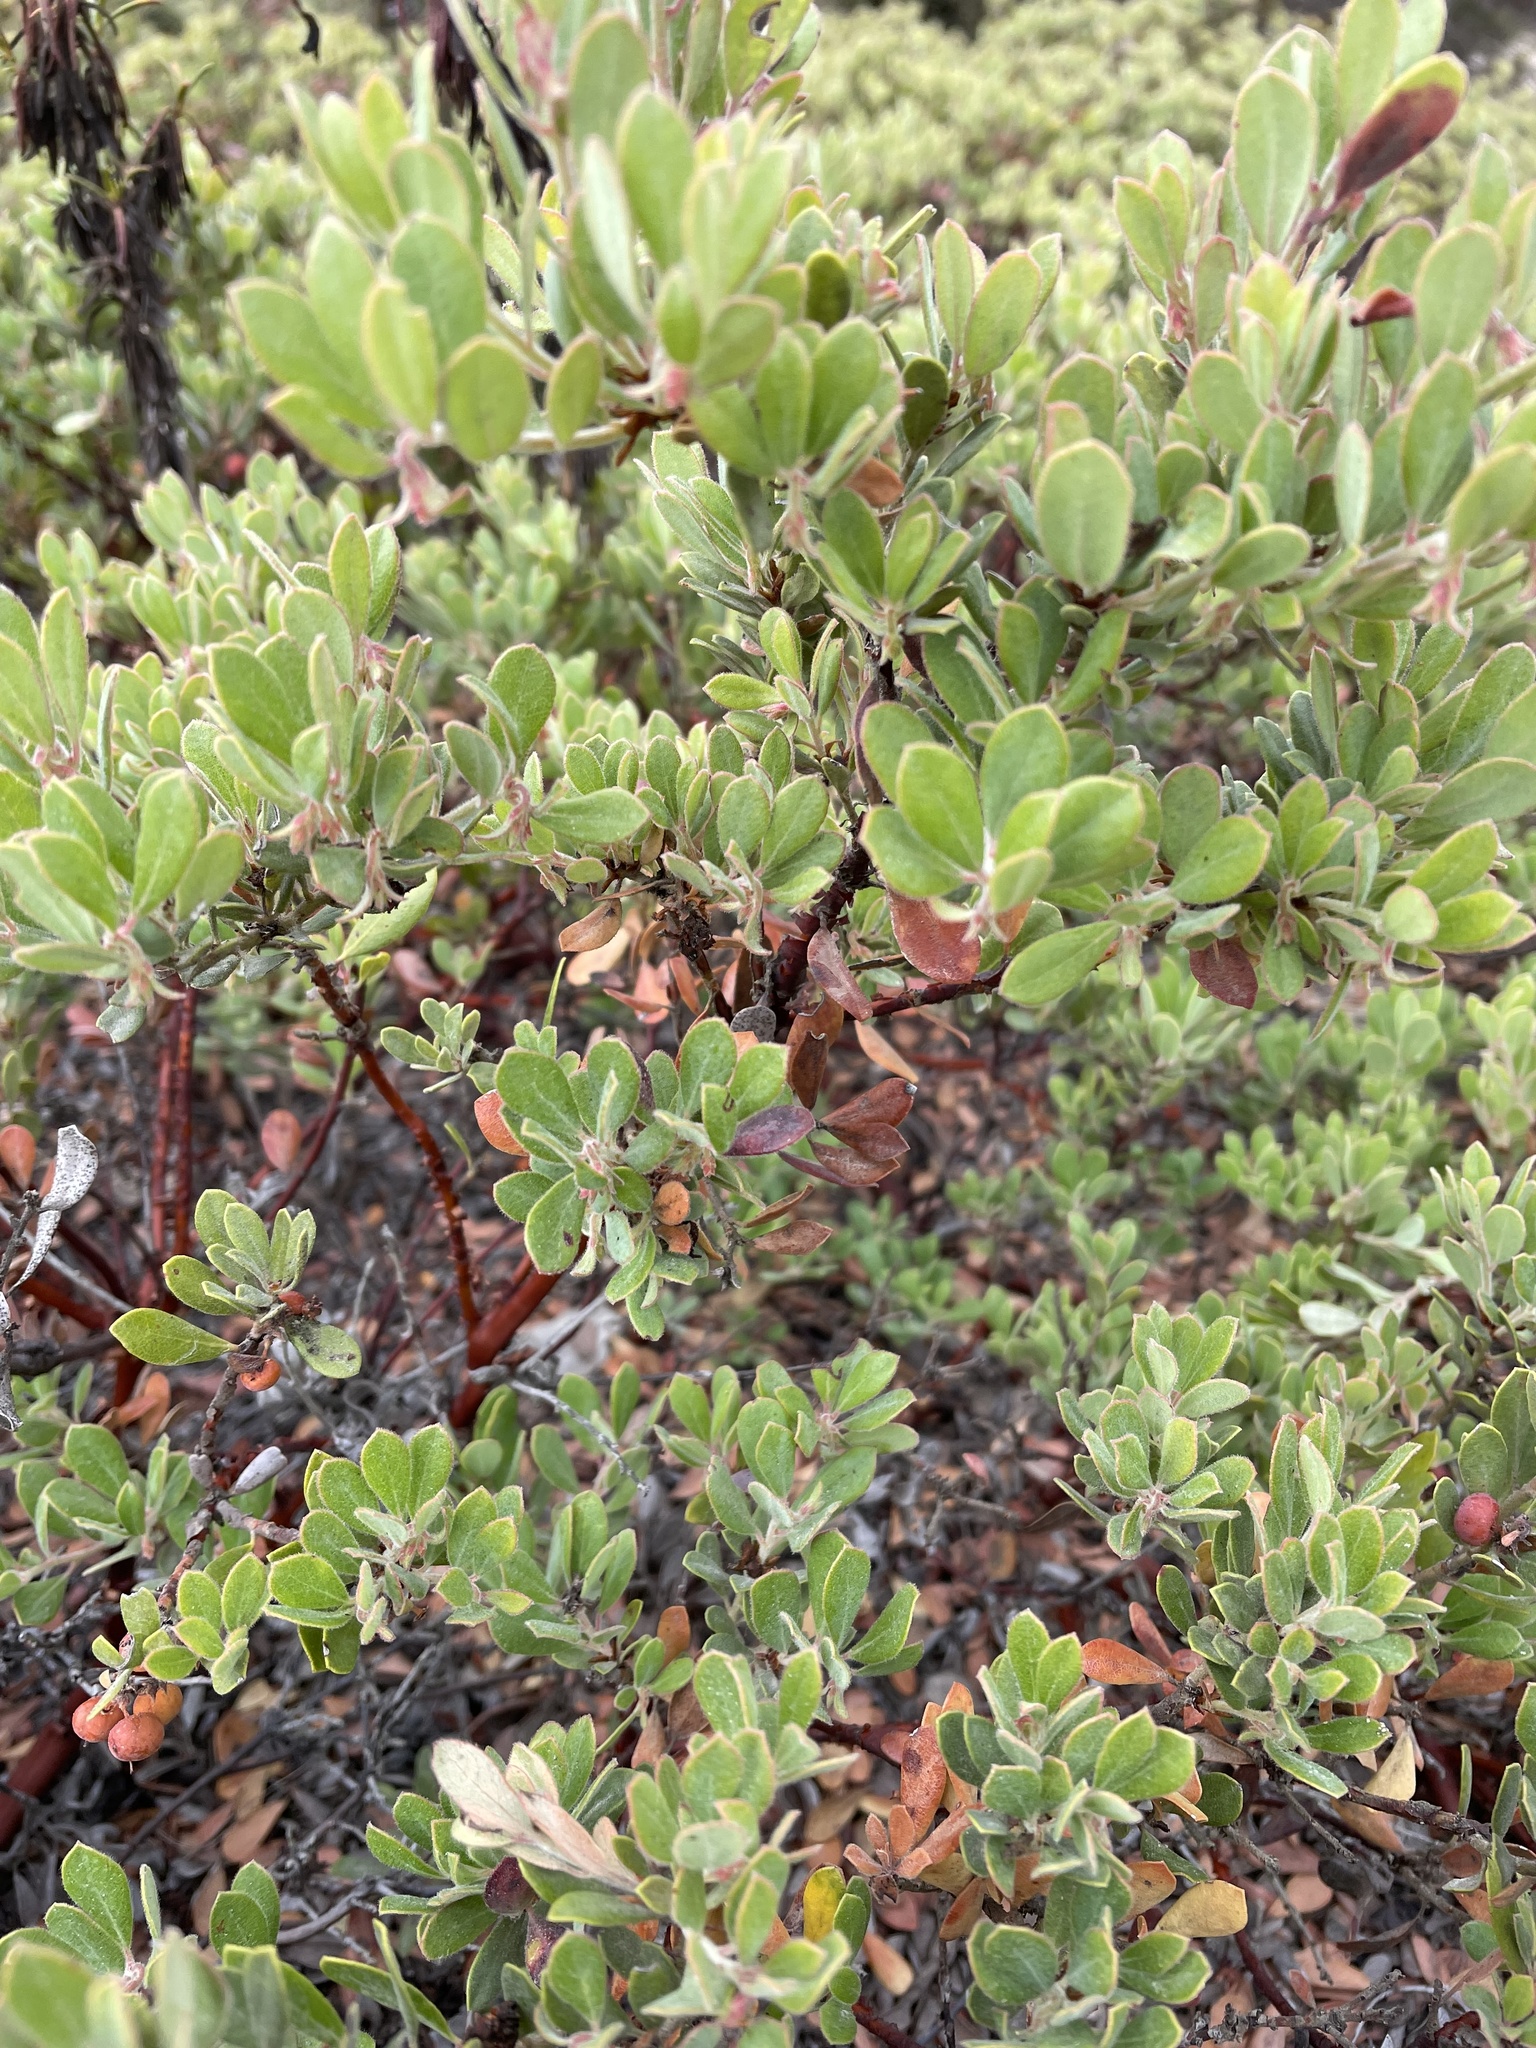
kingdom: Plantae
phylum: Tracheophyta
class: Magnoliopsida
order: Ericales
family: Ericaceae
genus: Arctostaphylos
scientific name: Arctostaphylos pumila
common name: Sandmat manzanita
